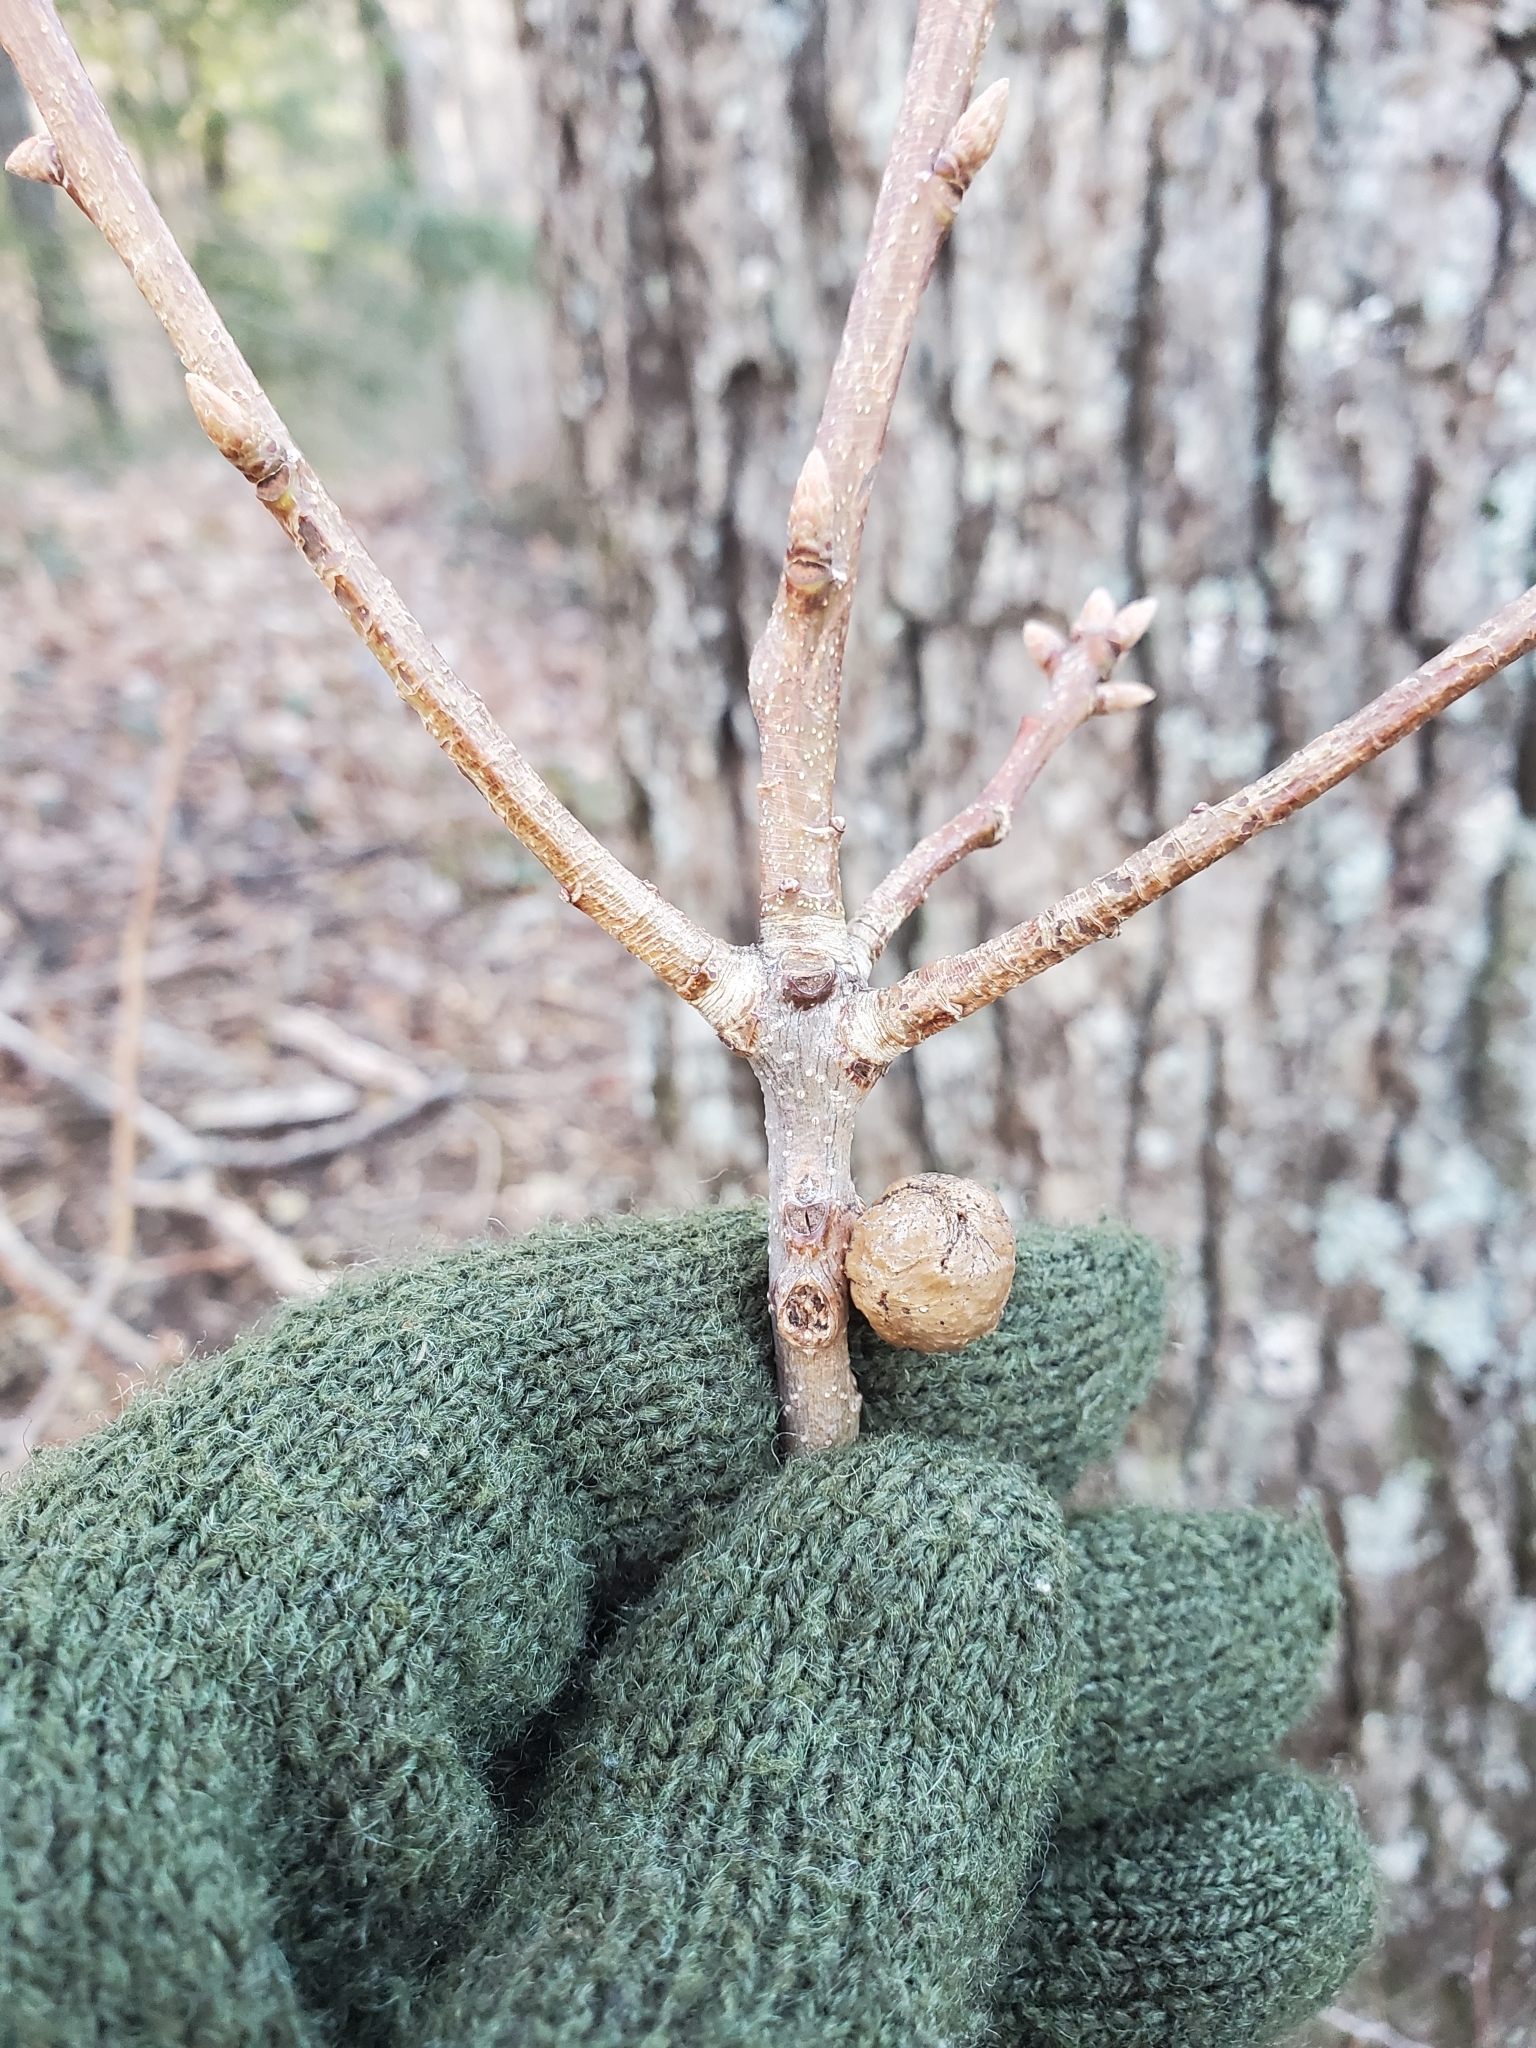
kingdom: Animalia
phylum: Arthropoda
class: Insecta
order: Hymenoptera
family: Cynipidae
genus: Disholcaspis
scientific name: Disholcaspis quercusglobulus
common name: Round bullet gall wasp
